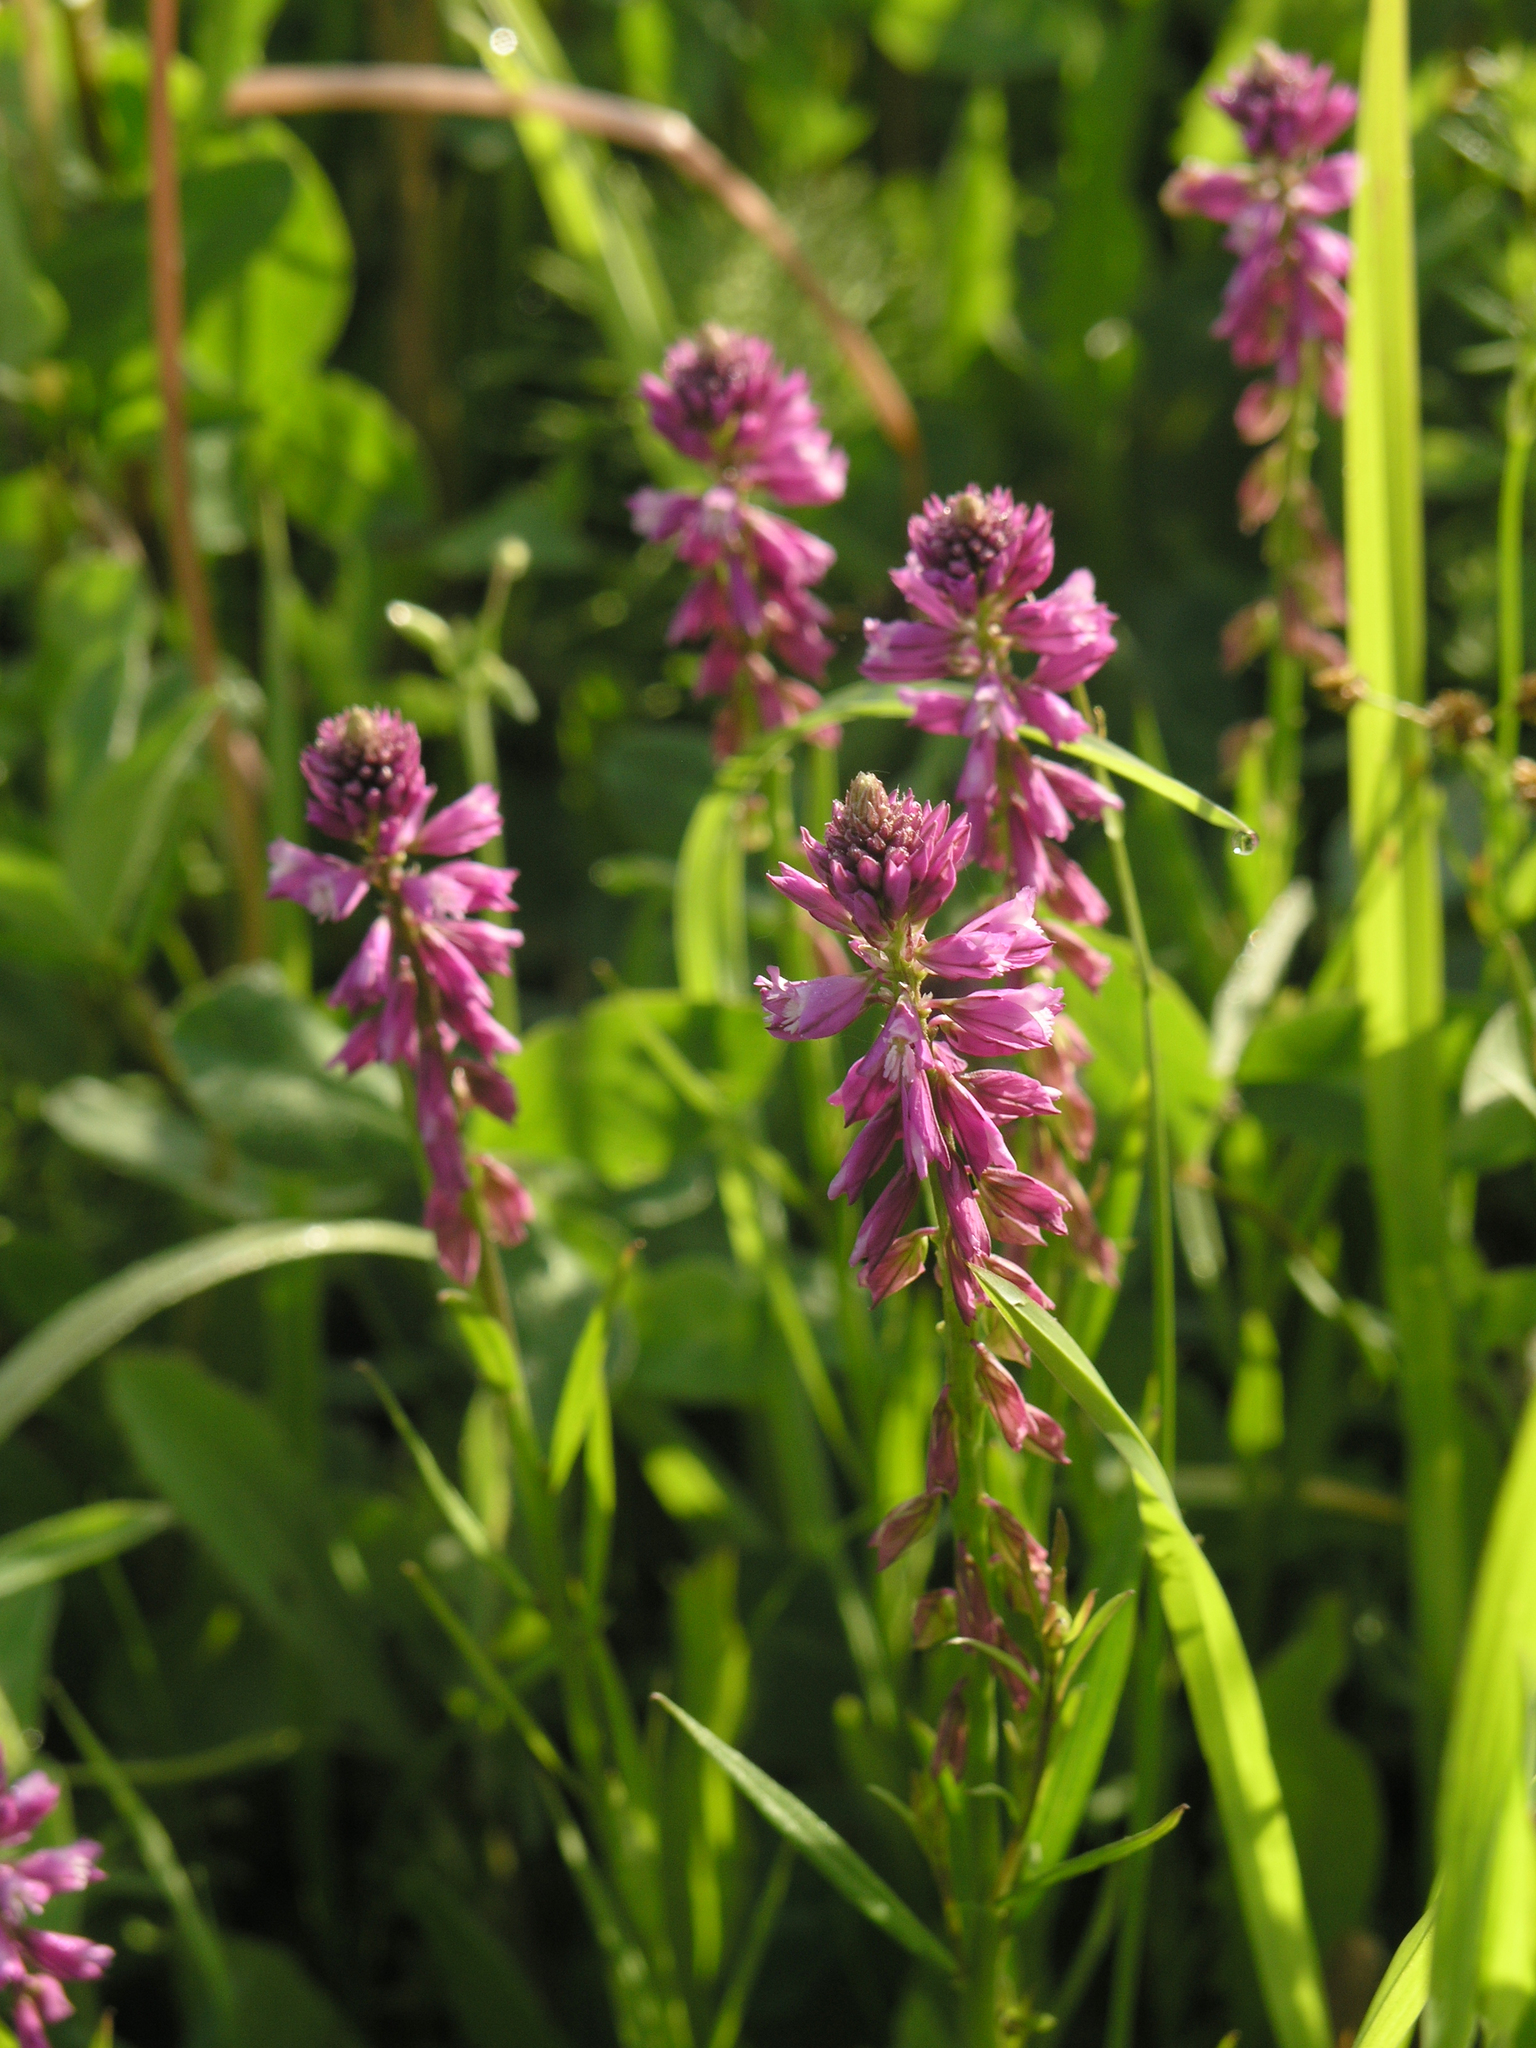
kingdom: Plantae
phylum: Tracheophyta
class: Magnoliopsida
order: Fabales
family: Polygalaceae
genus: Polygala
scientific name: Polygala comosa
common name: Tufted milkwort
